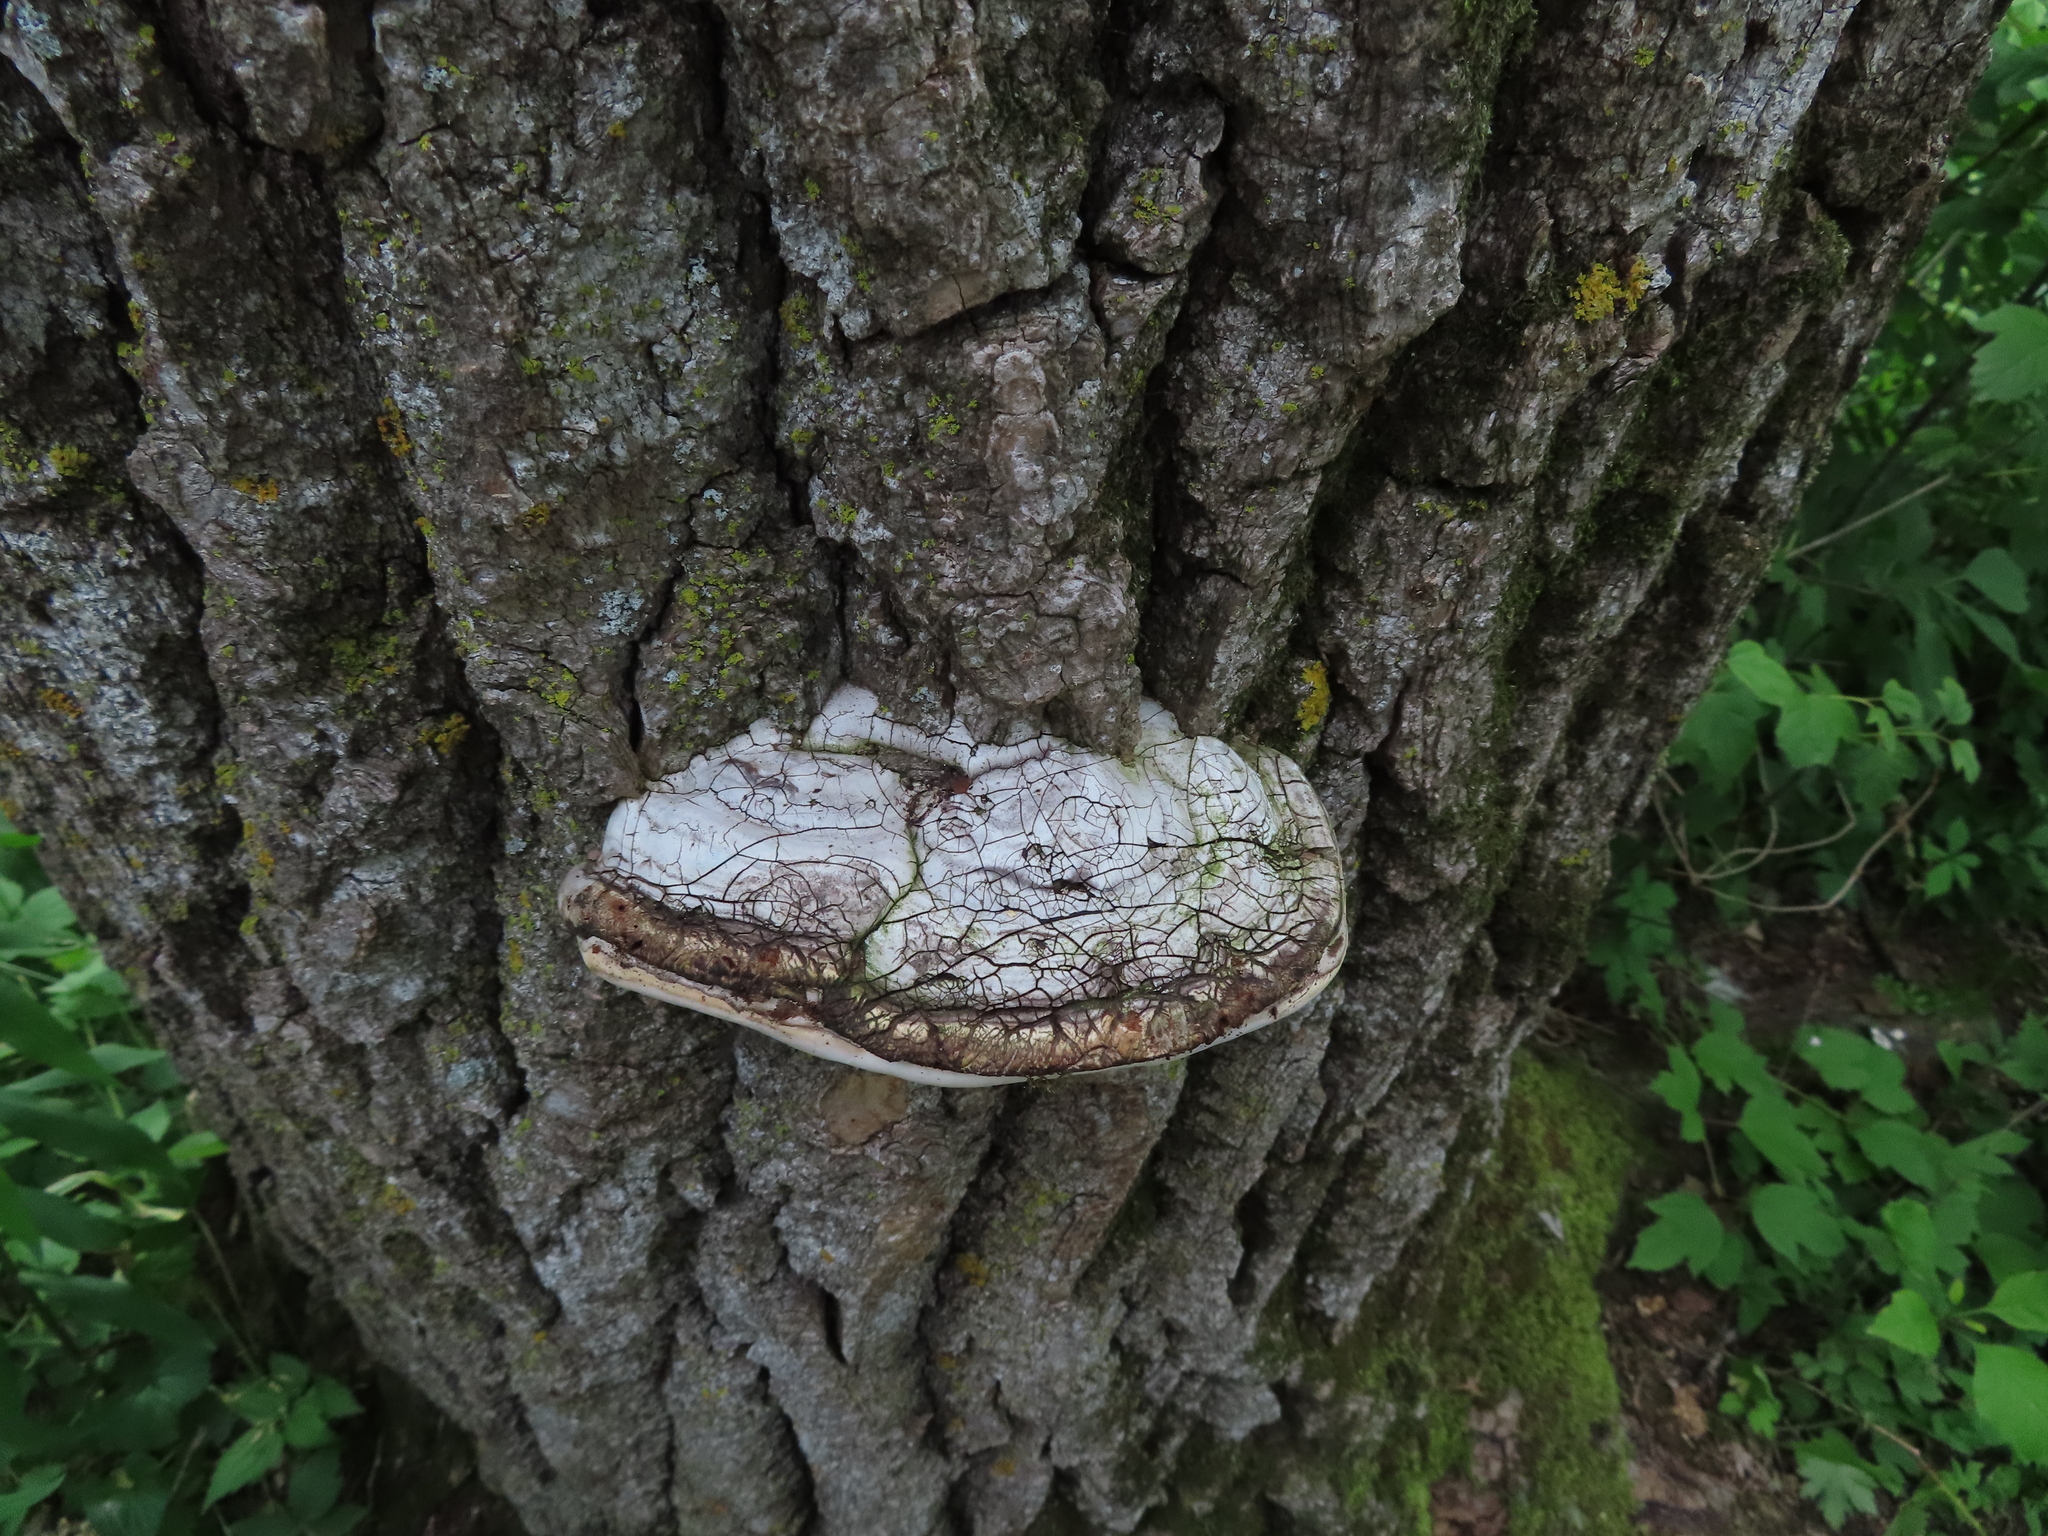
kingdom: Fungi
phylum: Basidiomycota
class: Agaricomycetes
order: Polyporales
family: Polyporaceae
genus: Fomes
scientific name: Fomes fomentarius
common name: Hoof fungus
